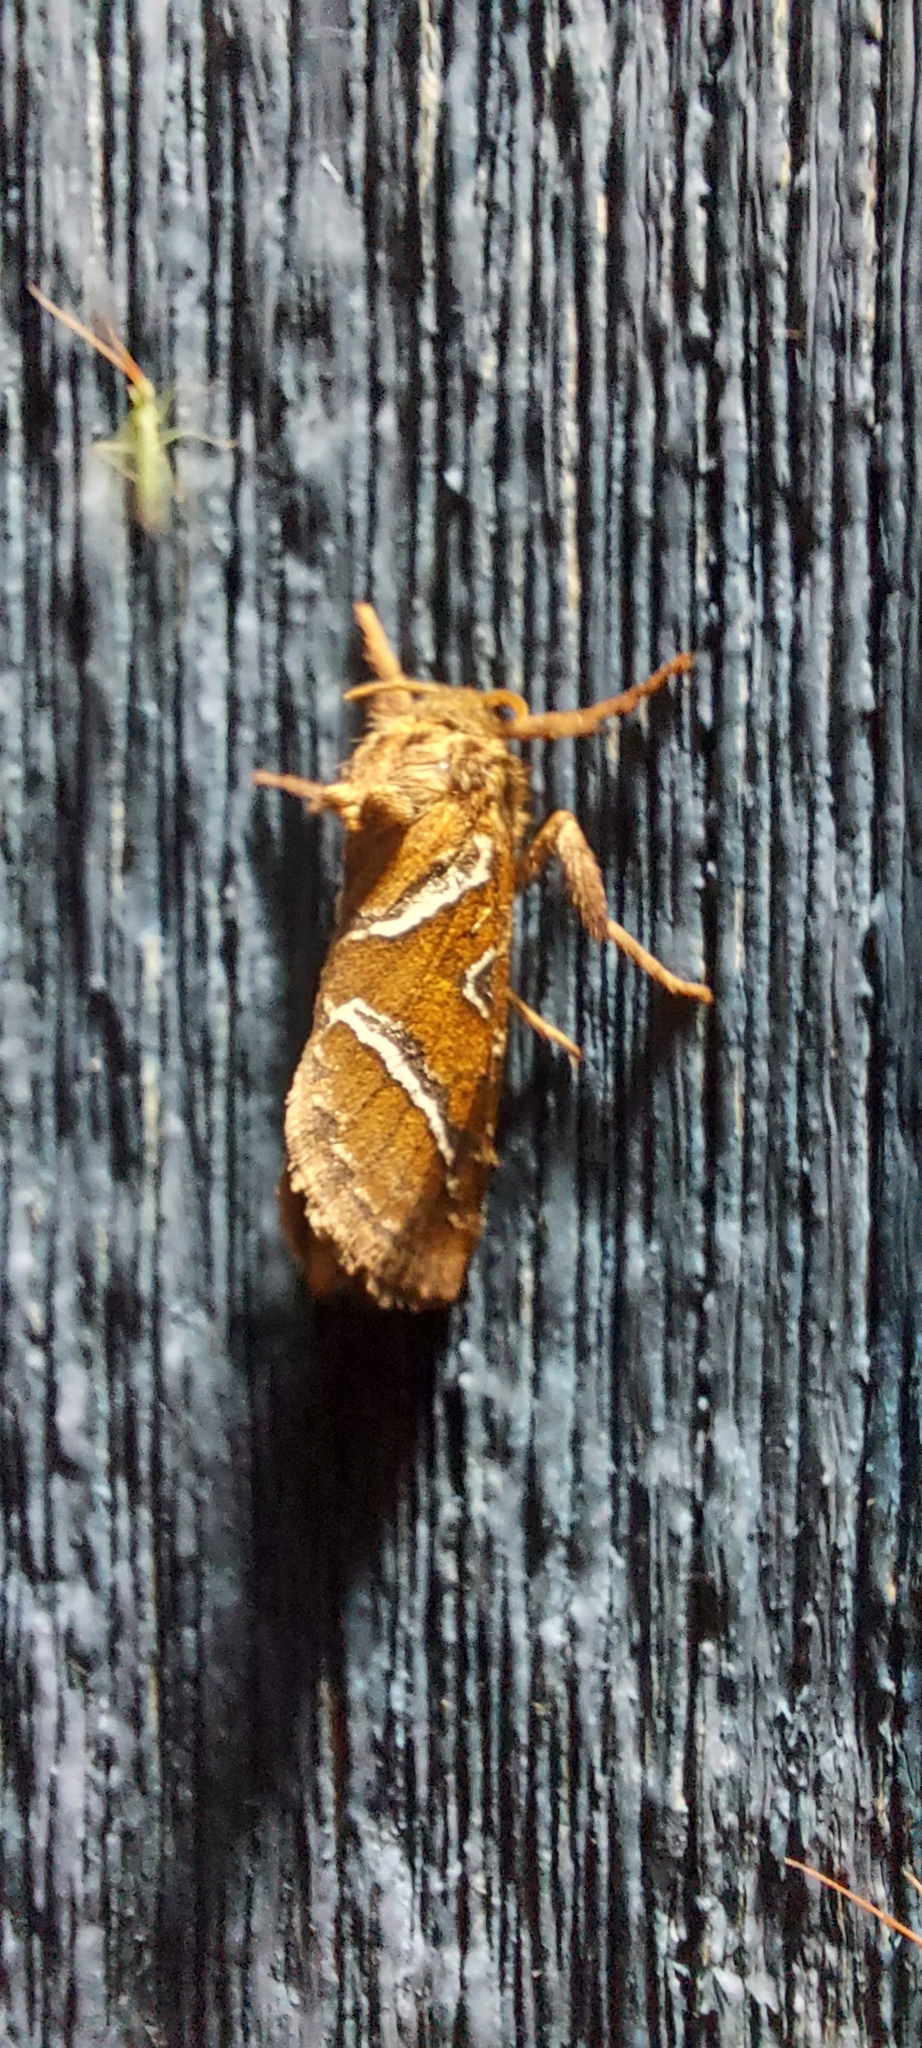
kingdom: Animalia
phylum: Arthropoda
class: Insecta
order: Lepidoptera
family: Hepialidae
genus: Triodia
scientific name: Triodia sylvina
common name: Orange swift
